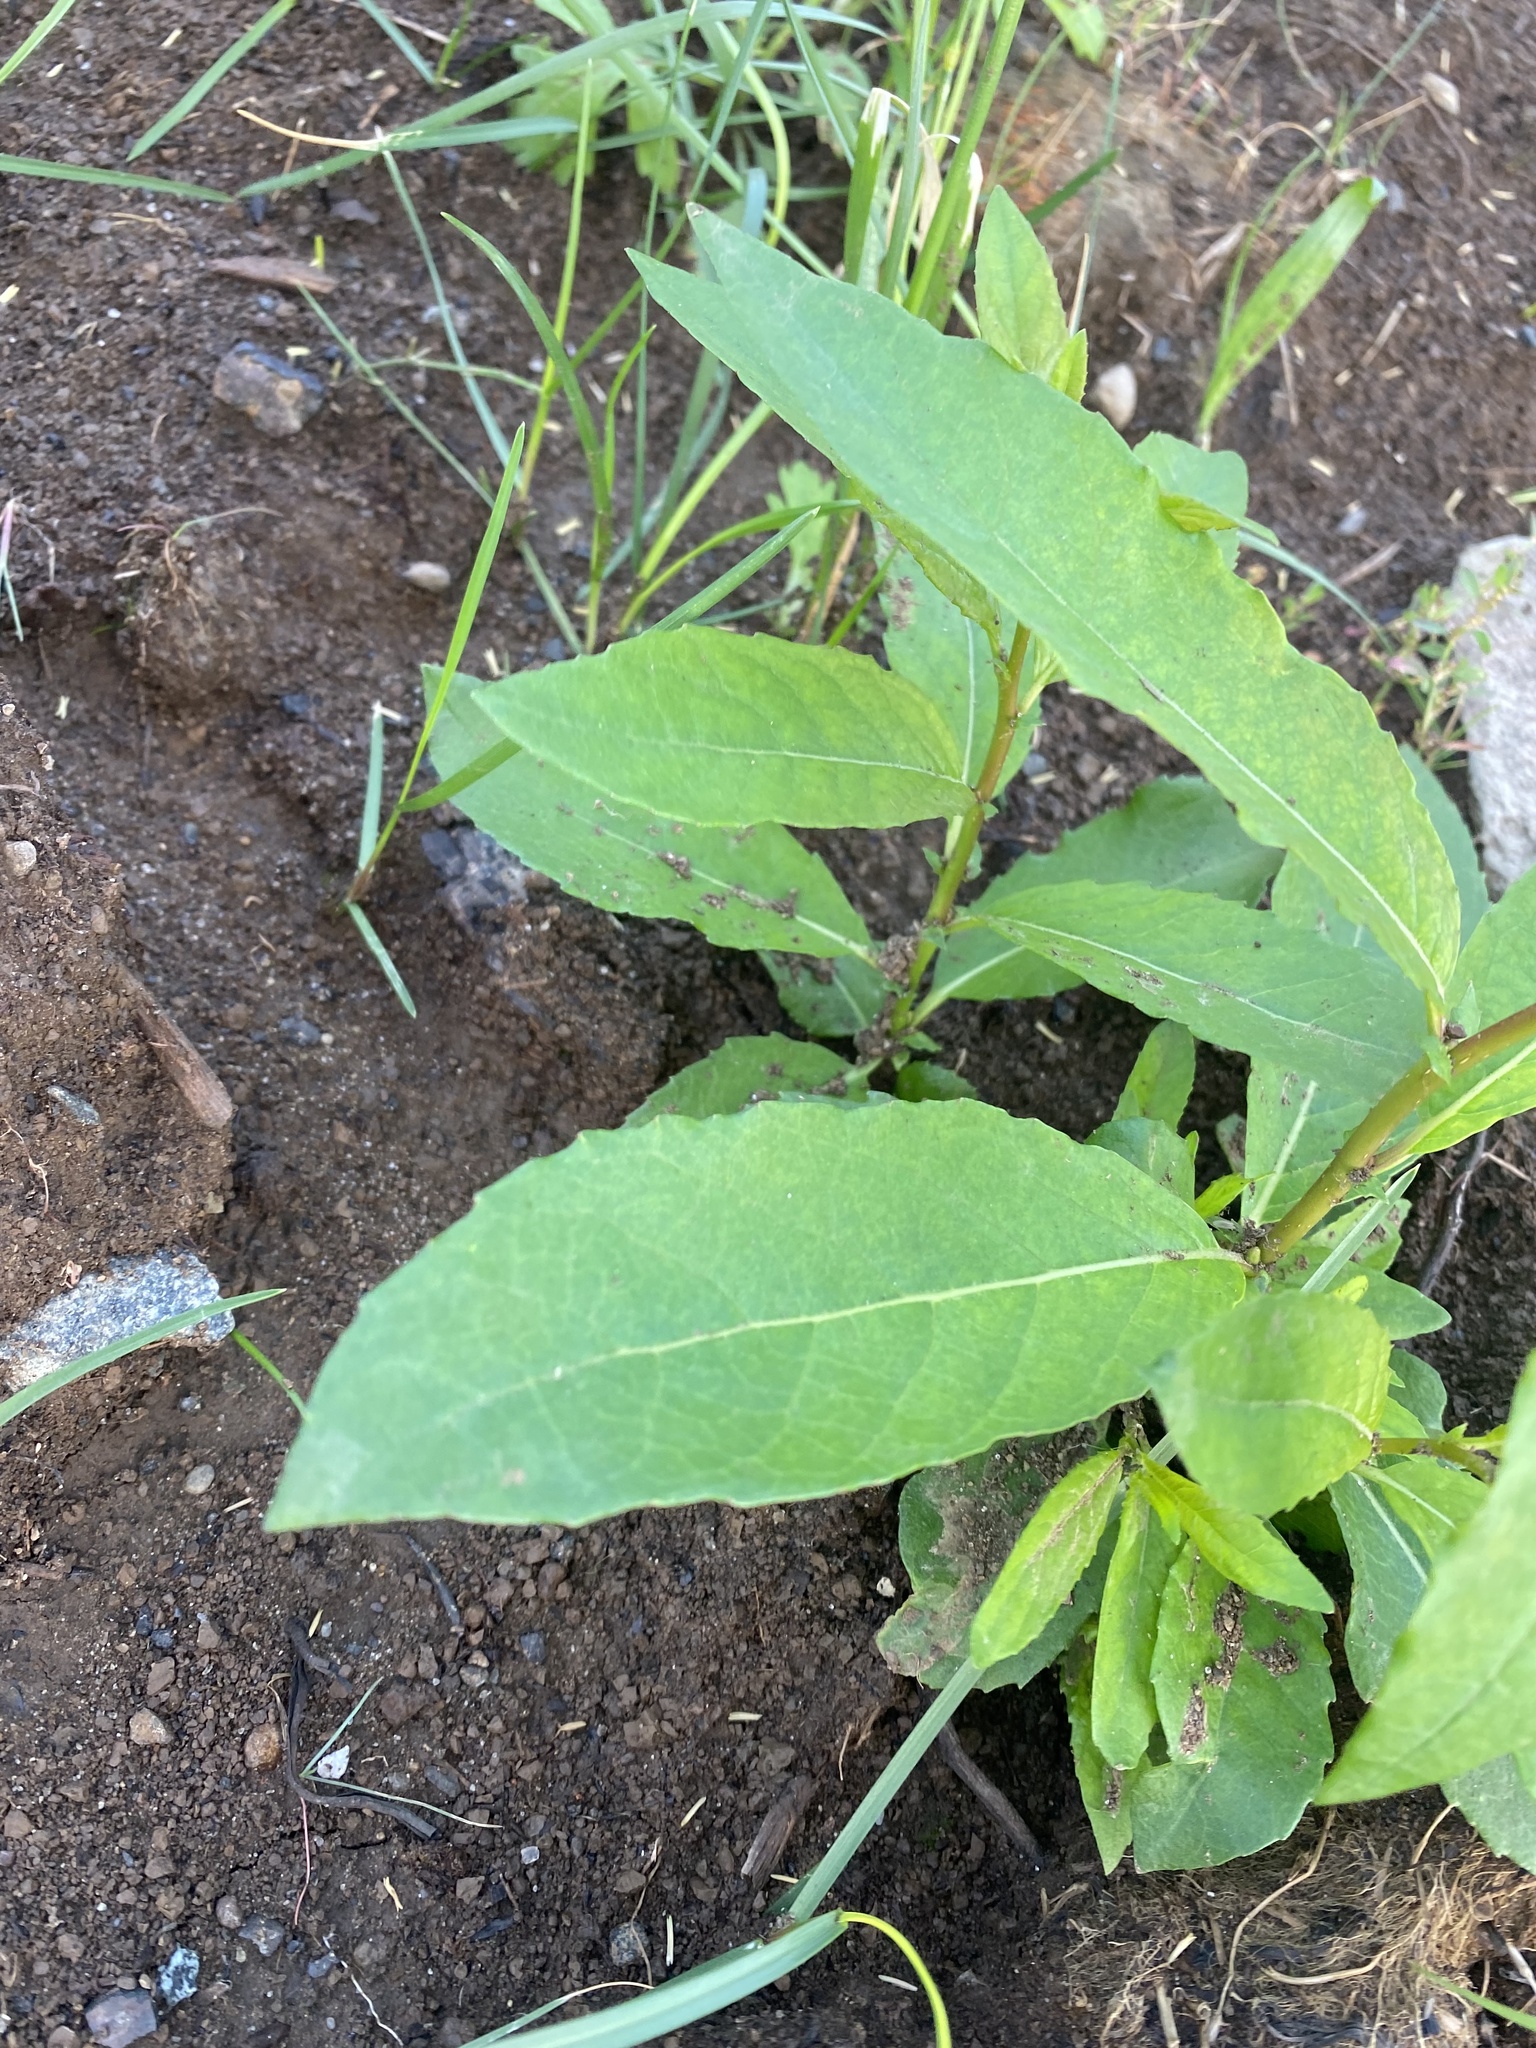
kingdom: Plantae
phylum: Tracheophyta
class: Magnoliopsida
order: Malpighiales
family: Salicaceae
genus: Salix
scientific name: Salix hastata
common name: Halberd willow
